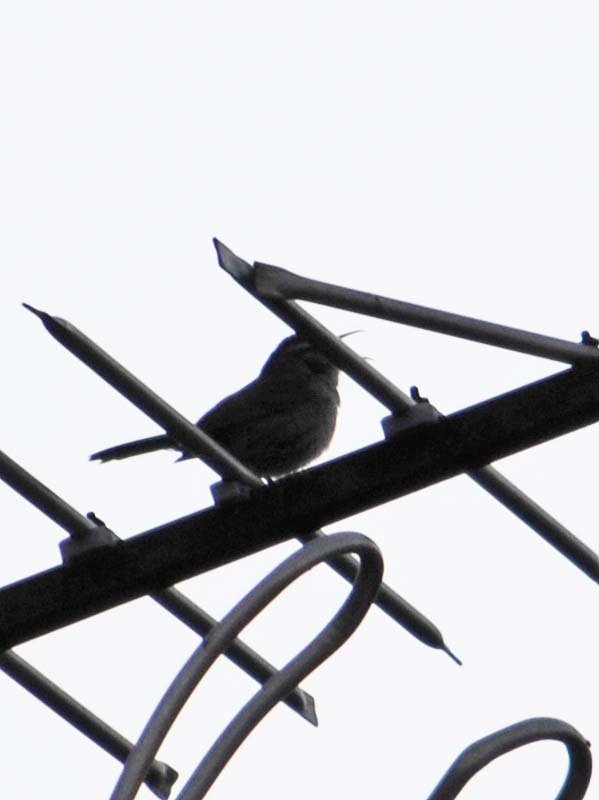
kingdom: Animalia
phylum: Chordata
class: Aves
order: Passeriformes
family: Troglodytidae
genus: Thryomanes
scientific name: Thryomanes bewickii
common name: Bewick's wren
